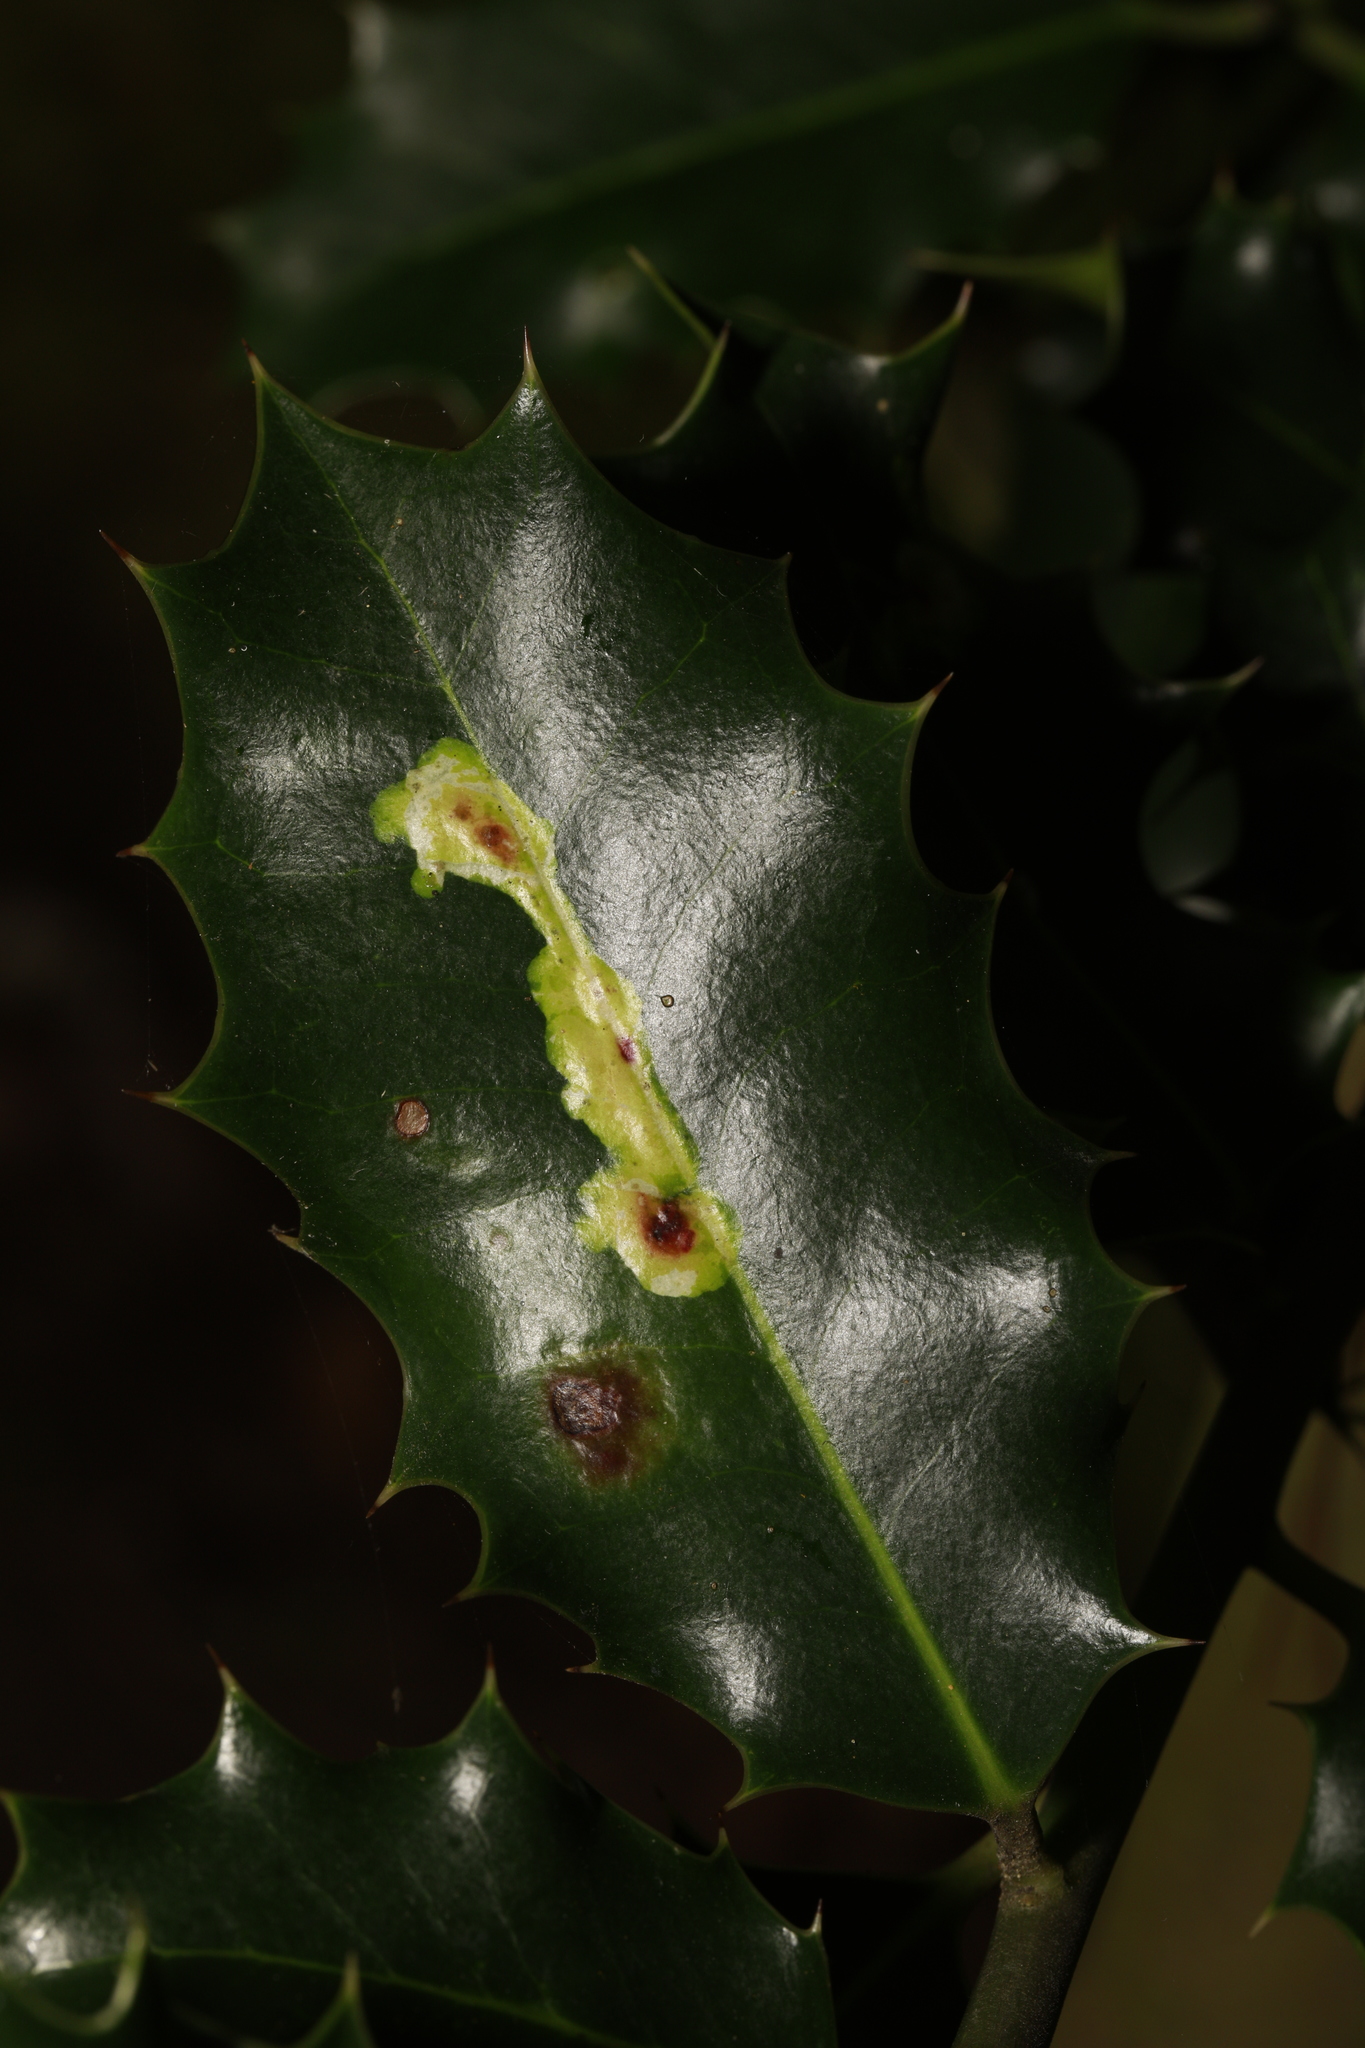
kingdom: Animalia
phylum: Arthropoda
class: Insecta
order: Diptera
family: Agromyzidae
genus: Phytomyza
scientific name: Phytomyza ilicis
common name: Holly leafminer
